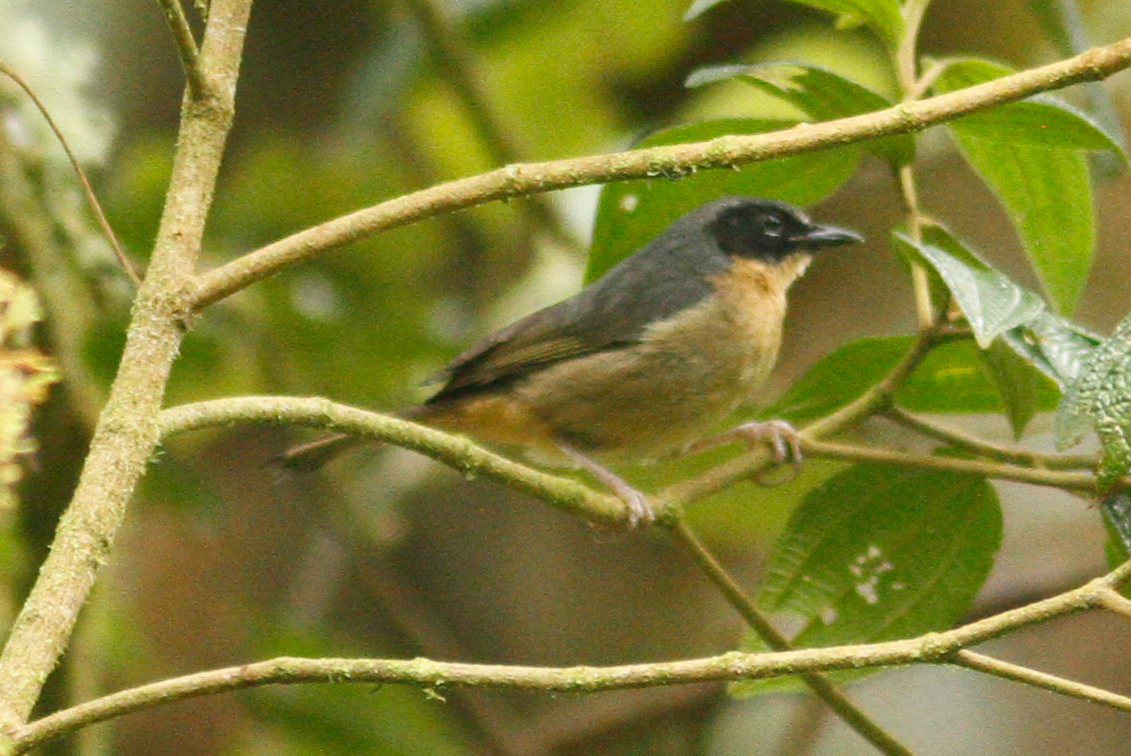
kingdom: Animalia
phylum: Chordata
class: Aves
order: Passeriformes
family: Thraupidae
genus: Sphenopsis
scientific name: Sphenopsis melanotis
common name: Black-eared hemispingus
